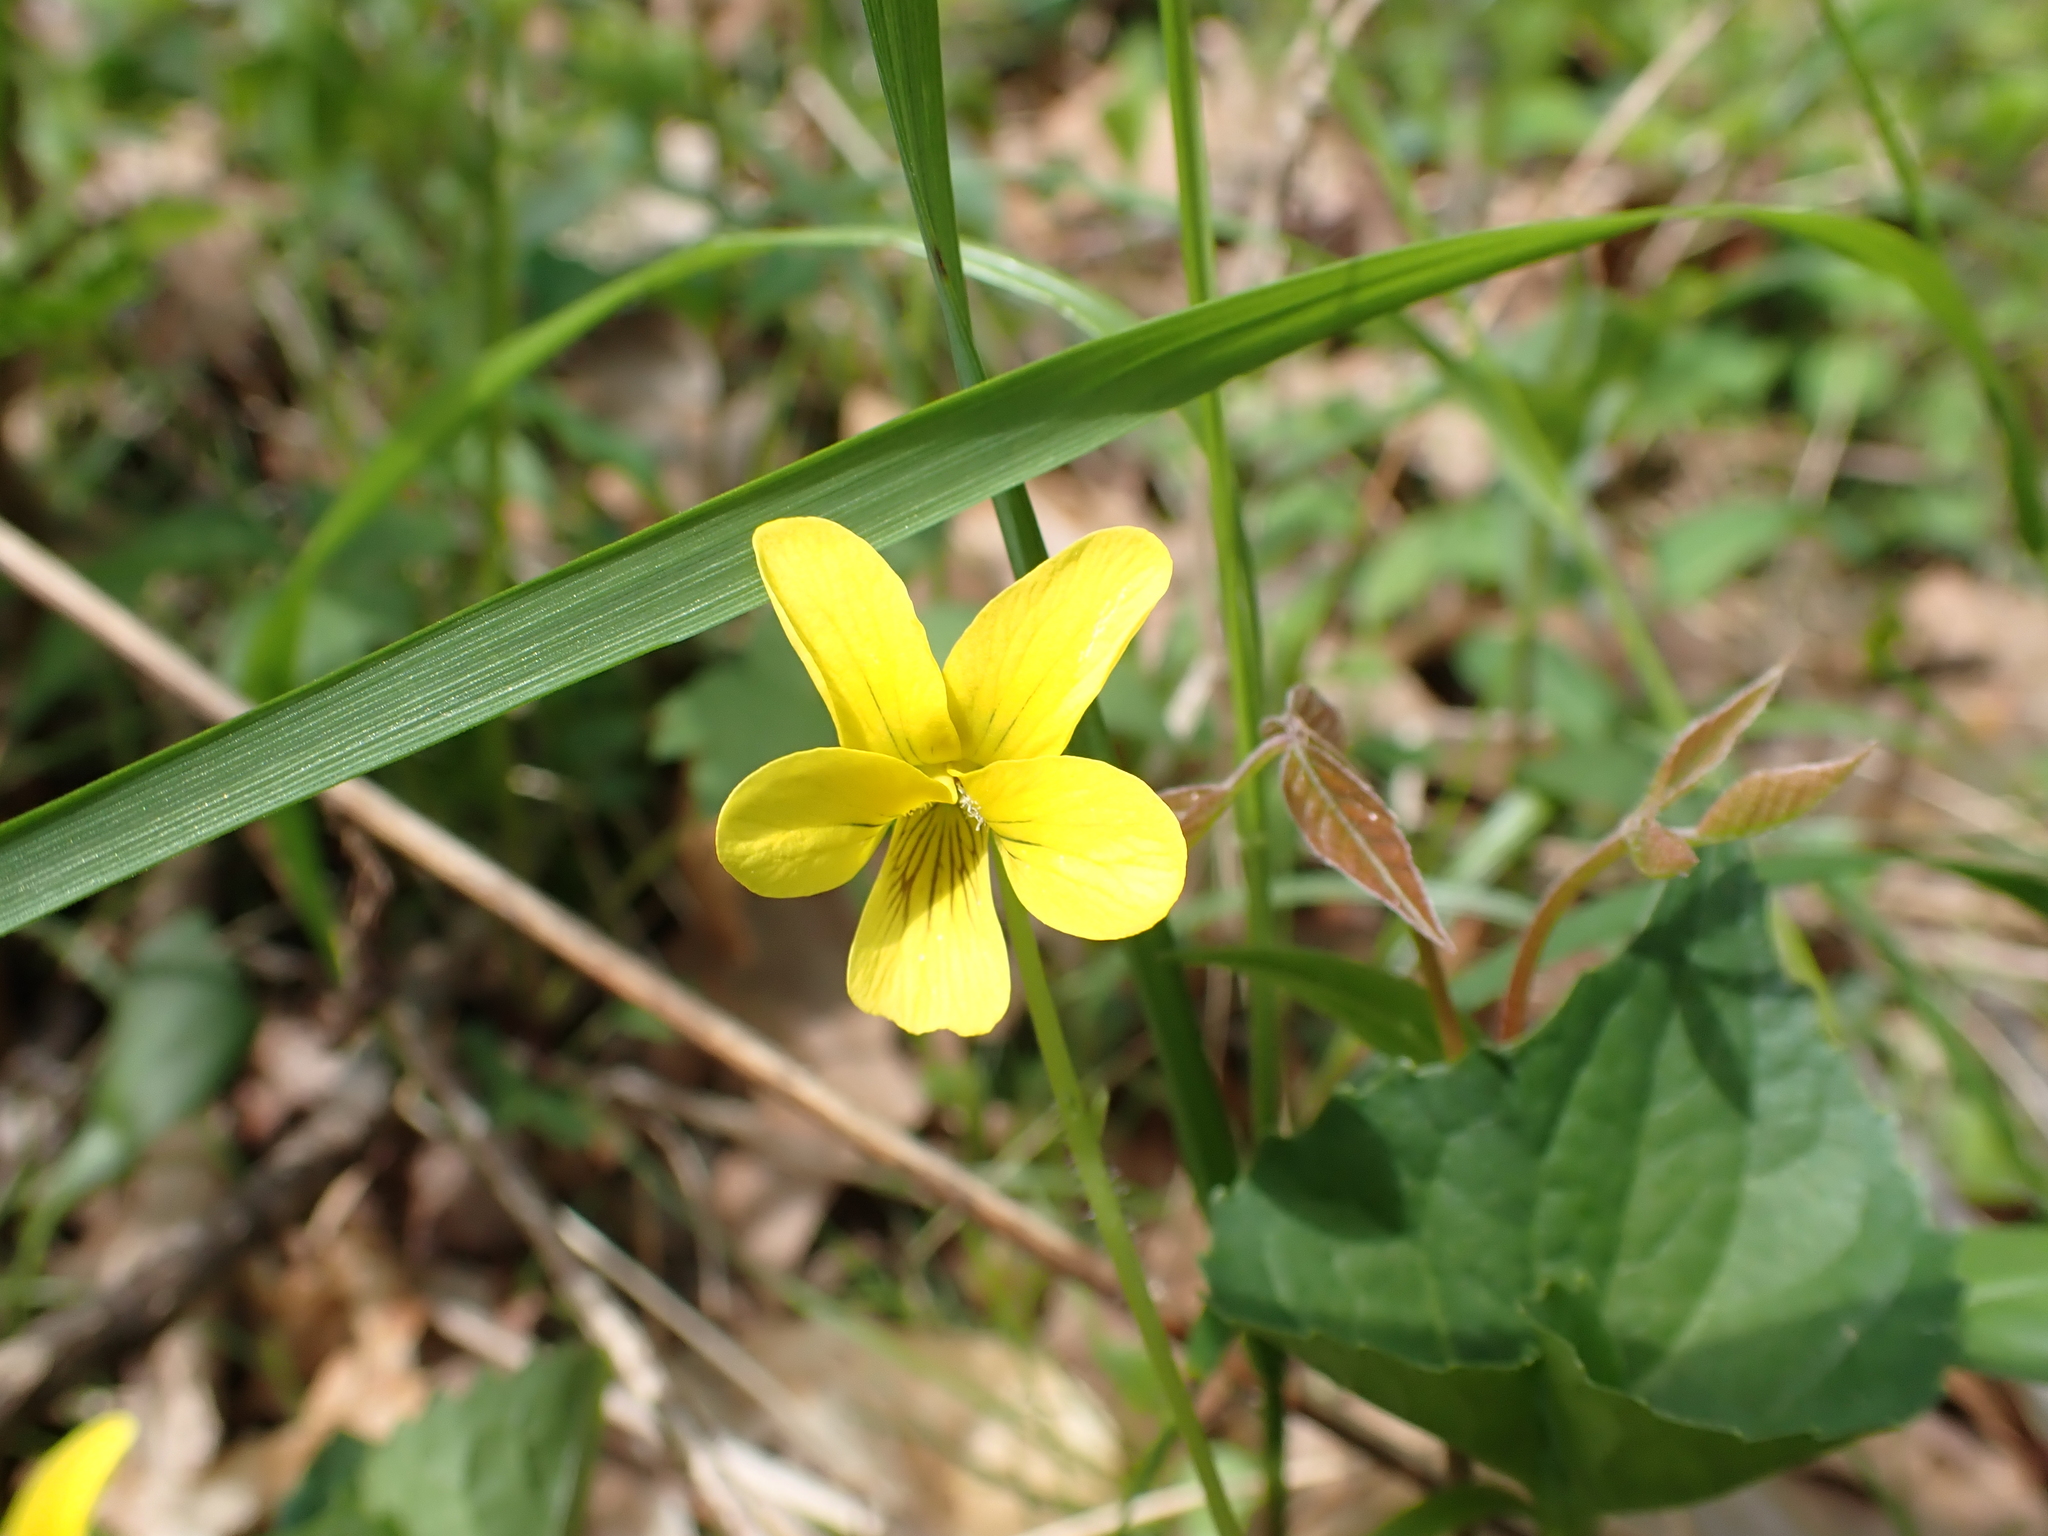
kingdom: Plantae
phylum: Tracheophyta
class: Magnoliopsida
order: Malpighiales
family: Violaceae
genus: Viola
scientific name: Viola eriocarpa
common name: Smooth yellow violet
